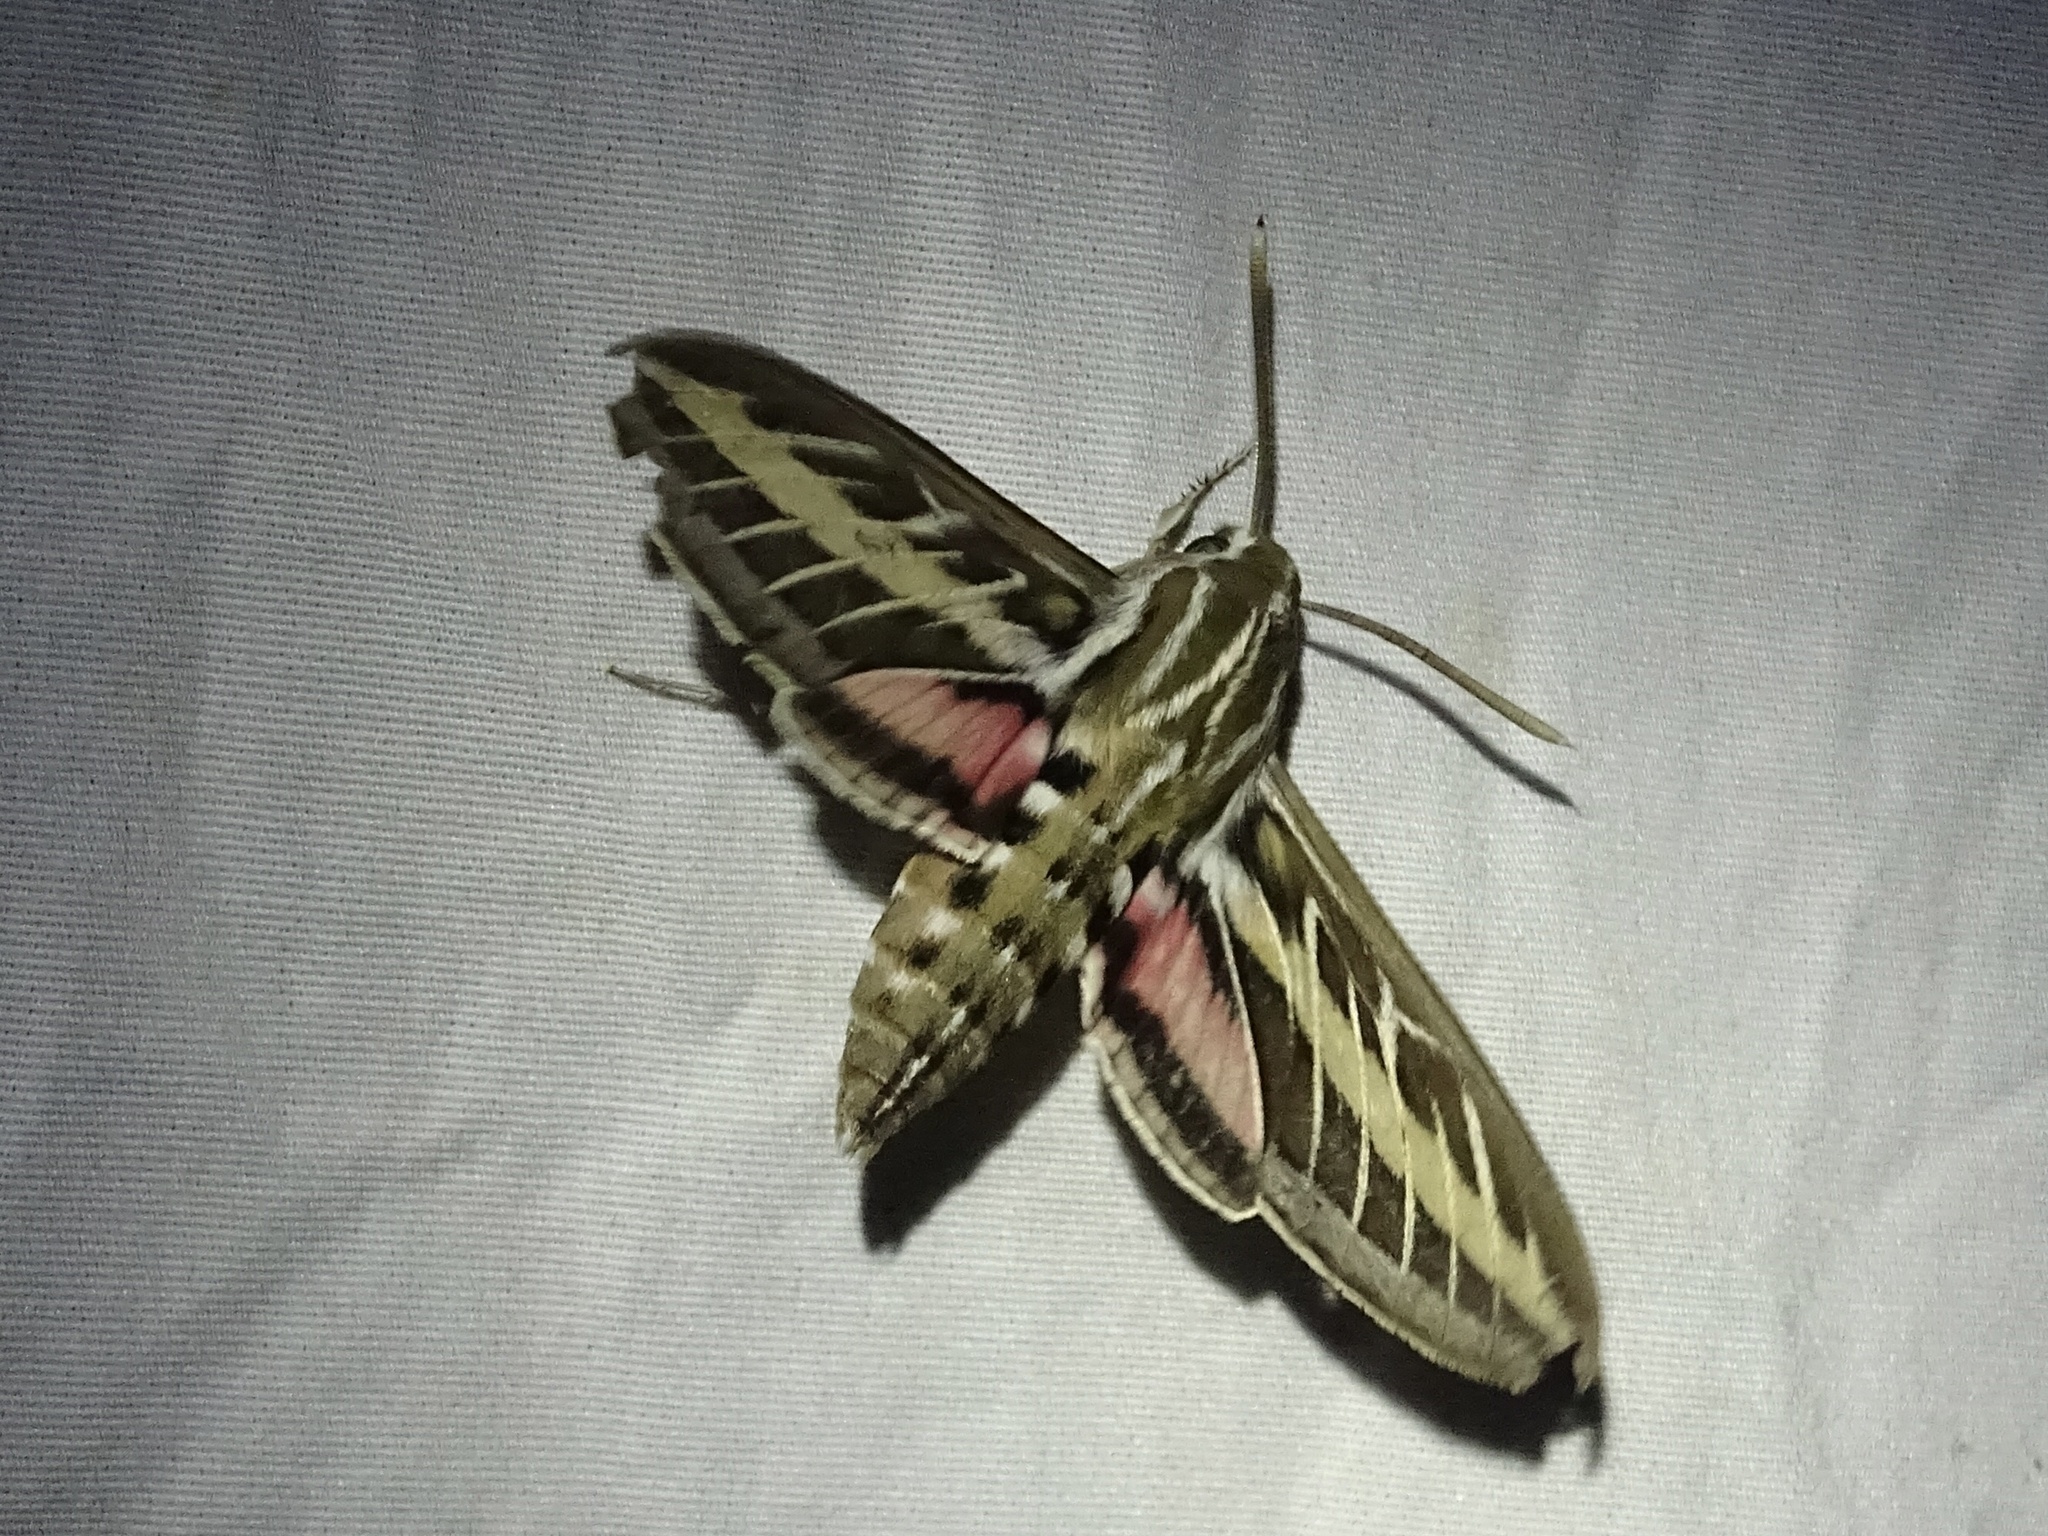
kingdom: Animalia
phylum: Arthropoda
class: Insecta
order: Lepidoptera
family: Sphingidae
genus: Hyles
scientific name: Hyles lineata
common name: White-lined sphinx
